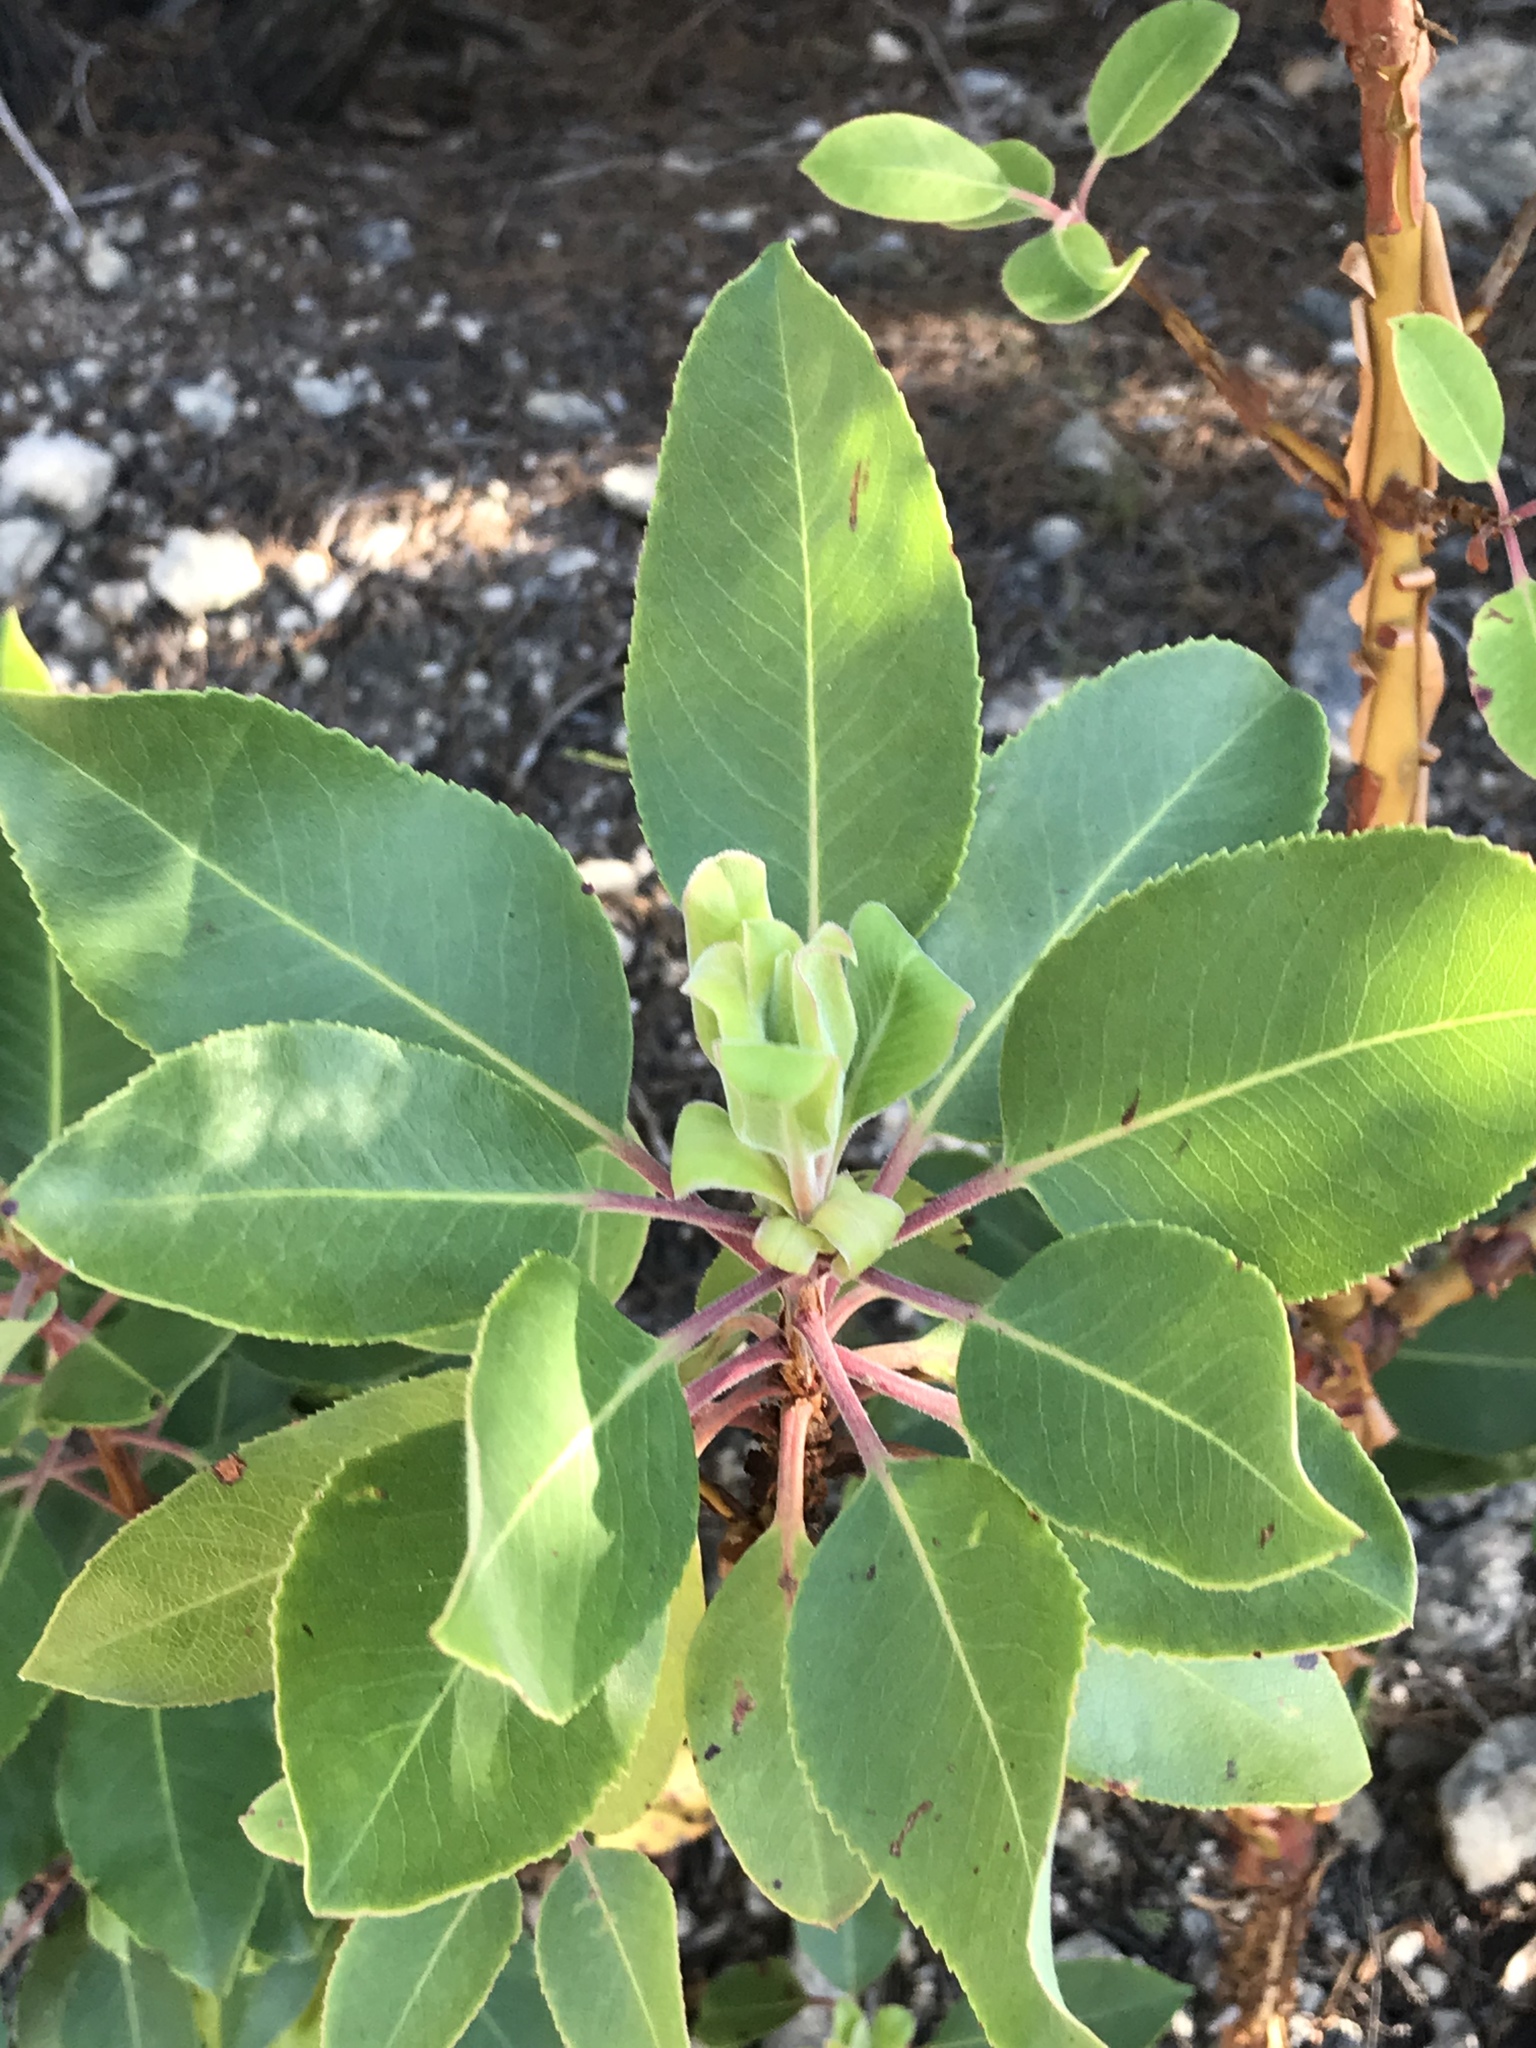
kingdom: Plantae
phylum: Tracheophyta
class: Magnoliopsida
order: Ericales
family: Ericaceae
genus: Arbutus
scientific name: Arbutus xalapensis
